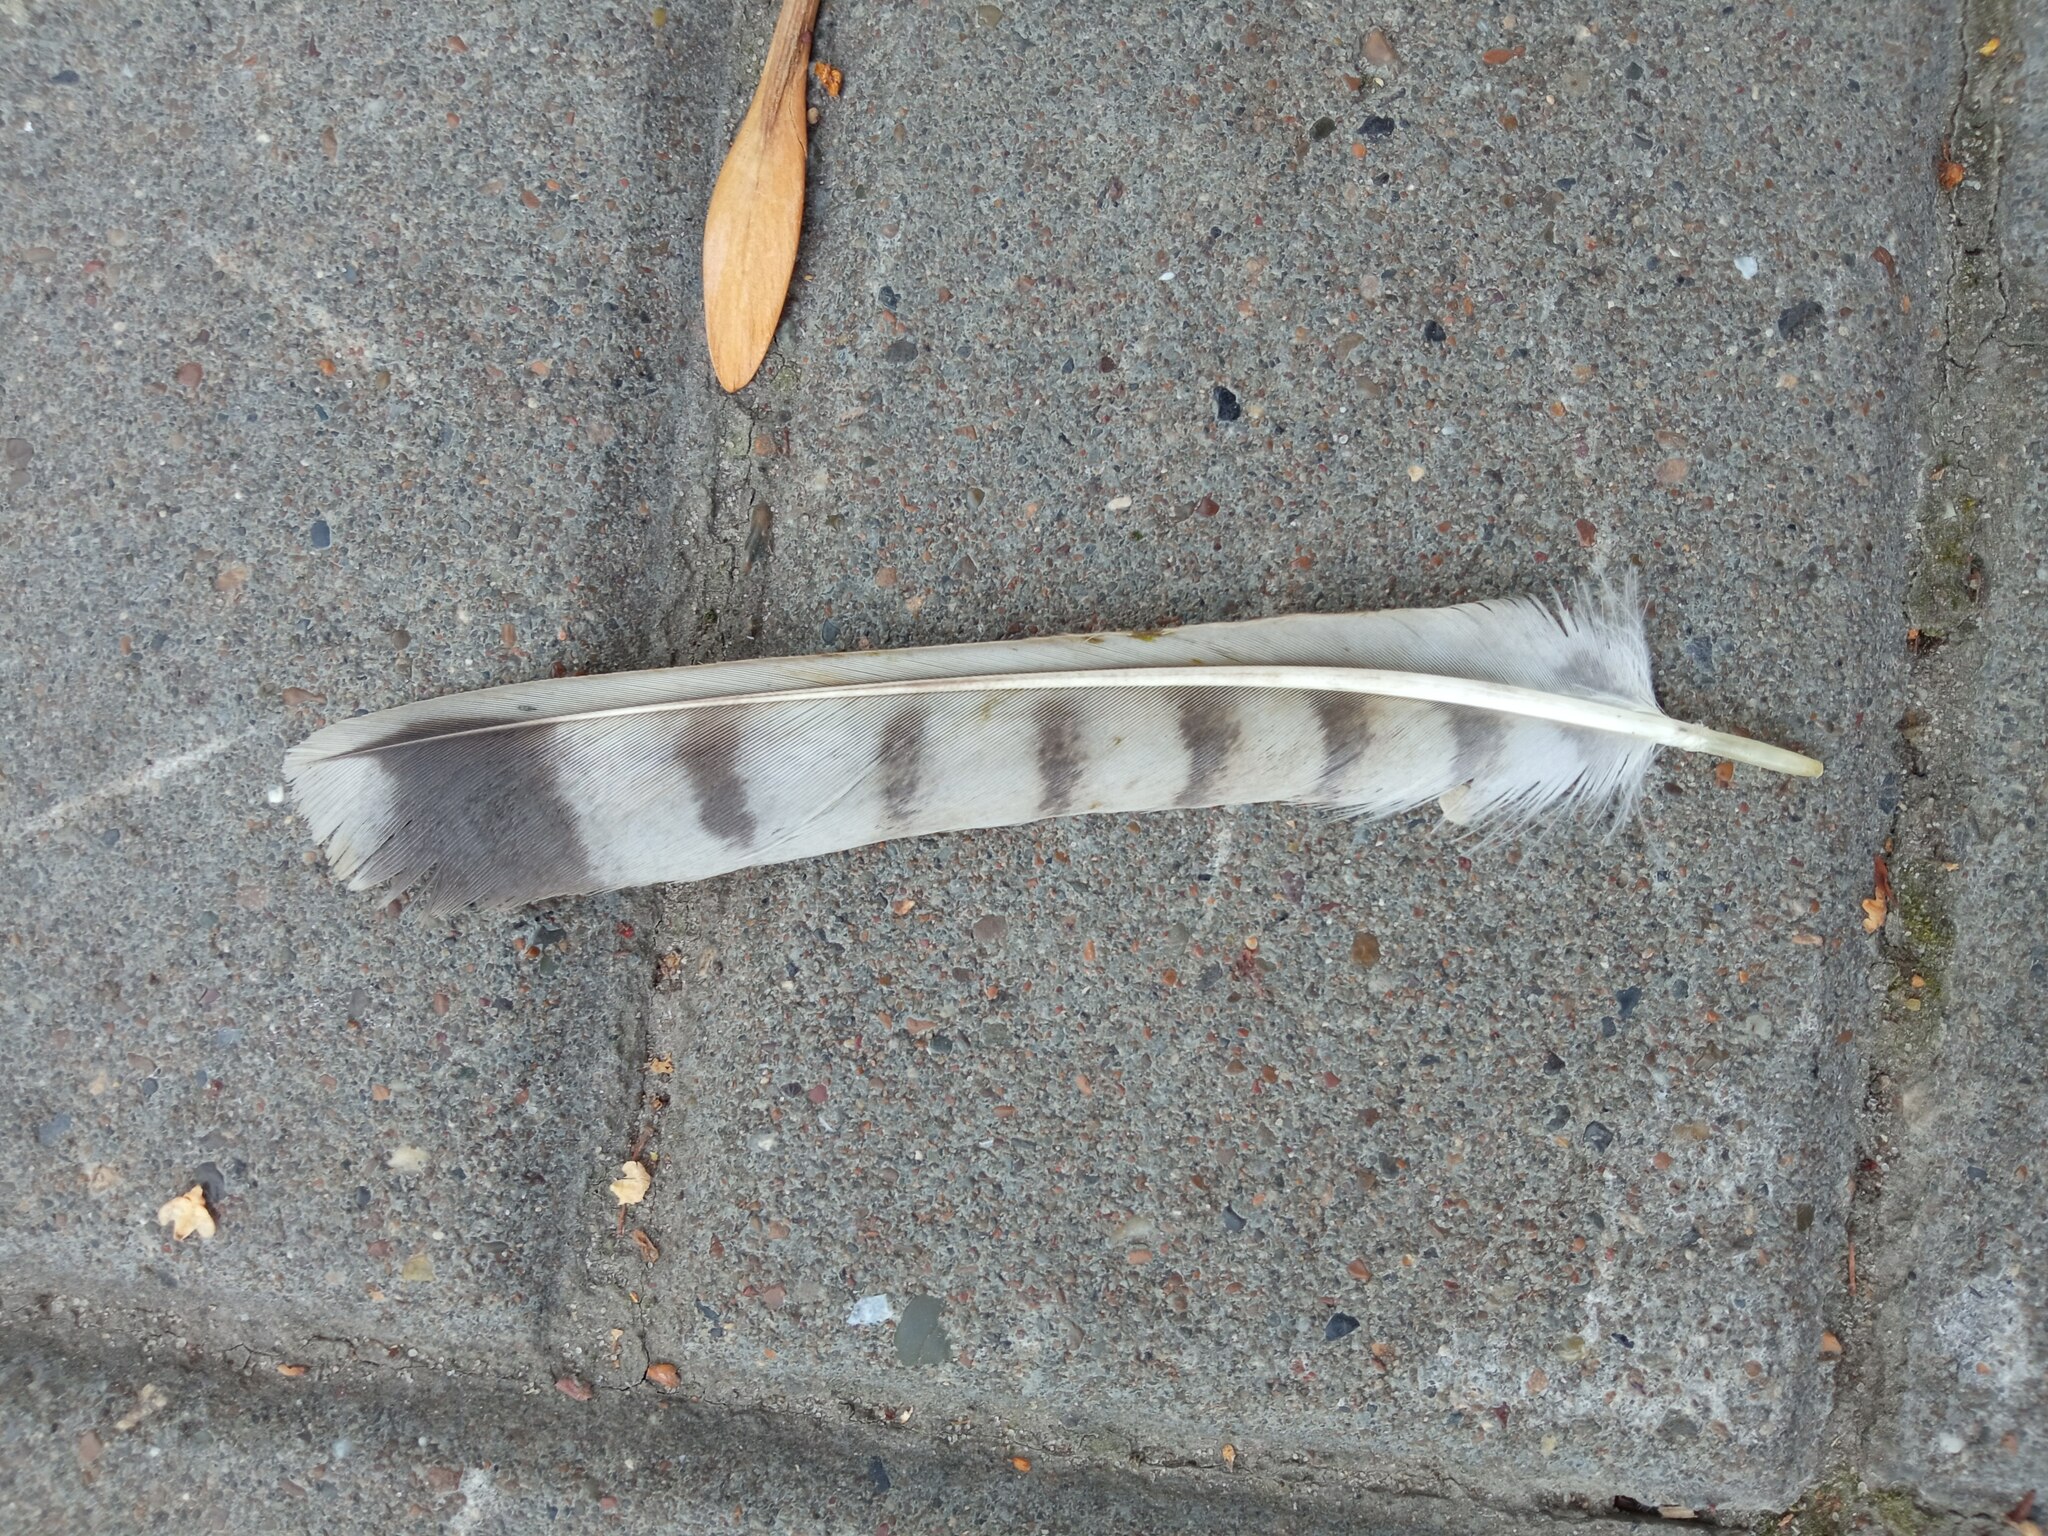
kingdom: Animalia
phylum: Chordata
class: Aves
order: Falconiformes
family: Falconidae
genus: Falco
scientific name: Falco columbarius
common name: Merlin
